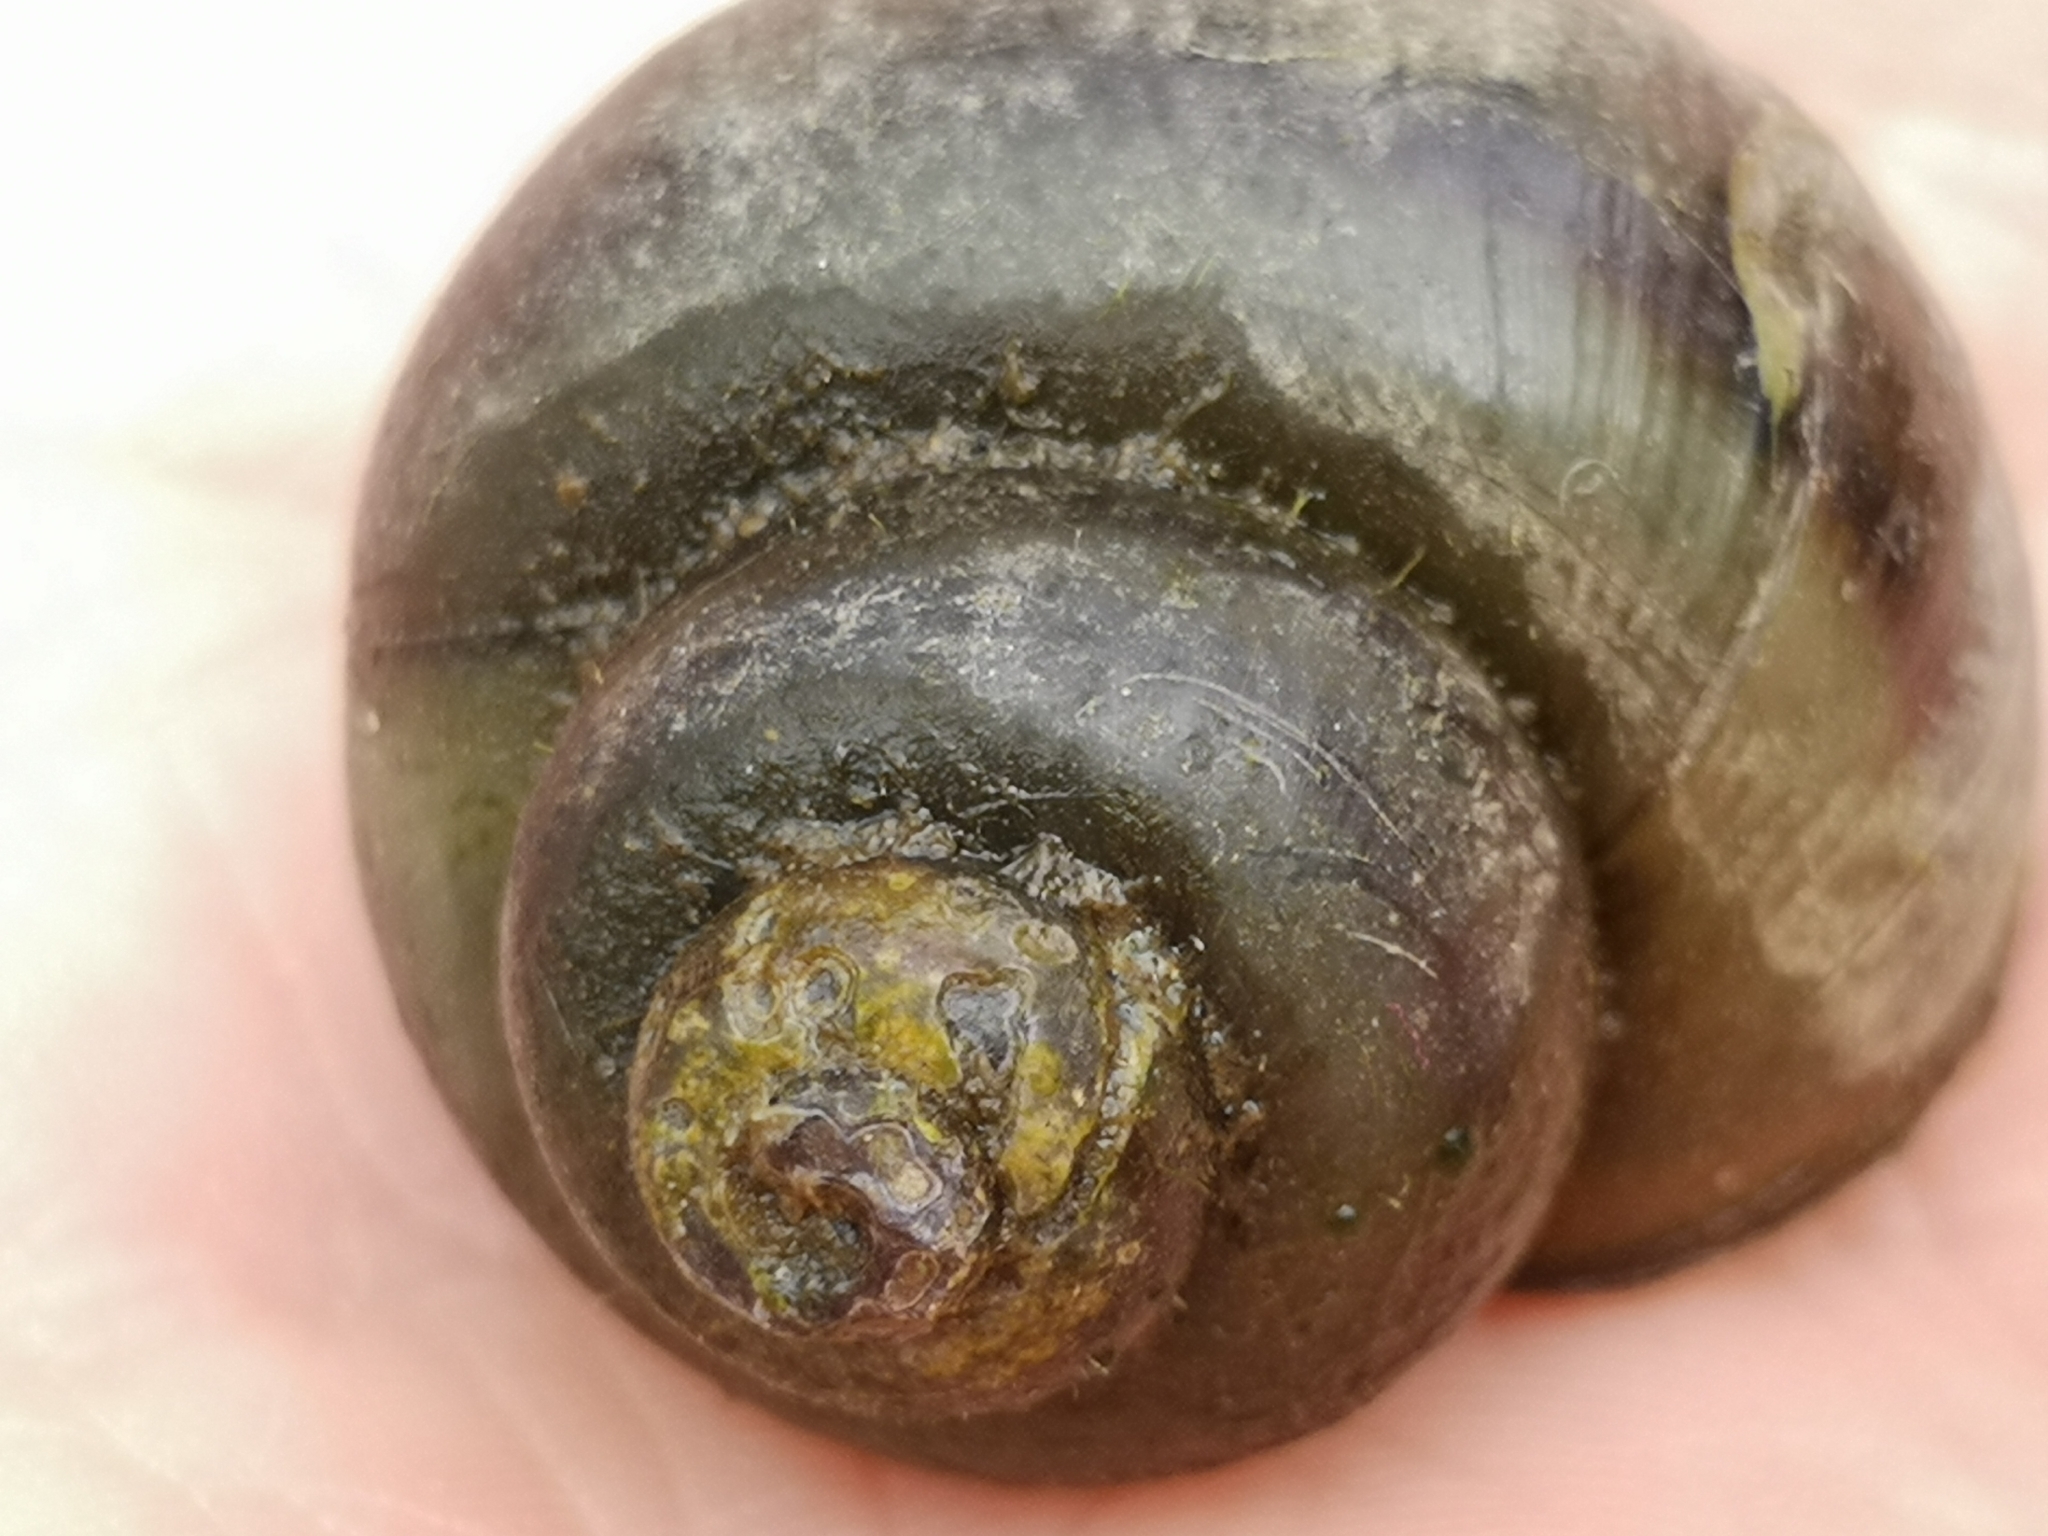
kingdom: Animalia
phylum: Mollusca
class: Gastropoda
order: Architaenioglossa
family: Viviparidae
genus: Cipangopaludina
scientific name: Cipangopaludina chinensis
